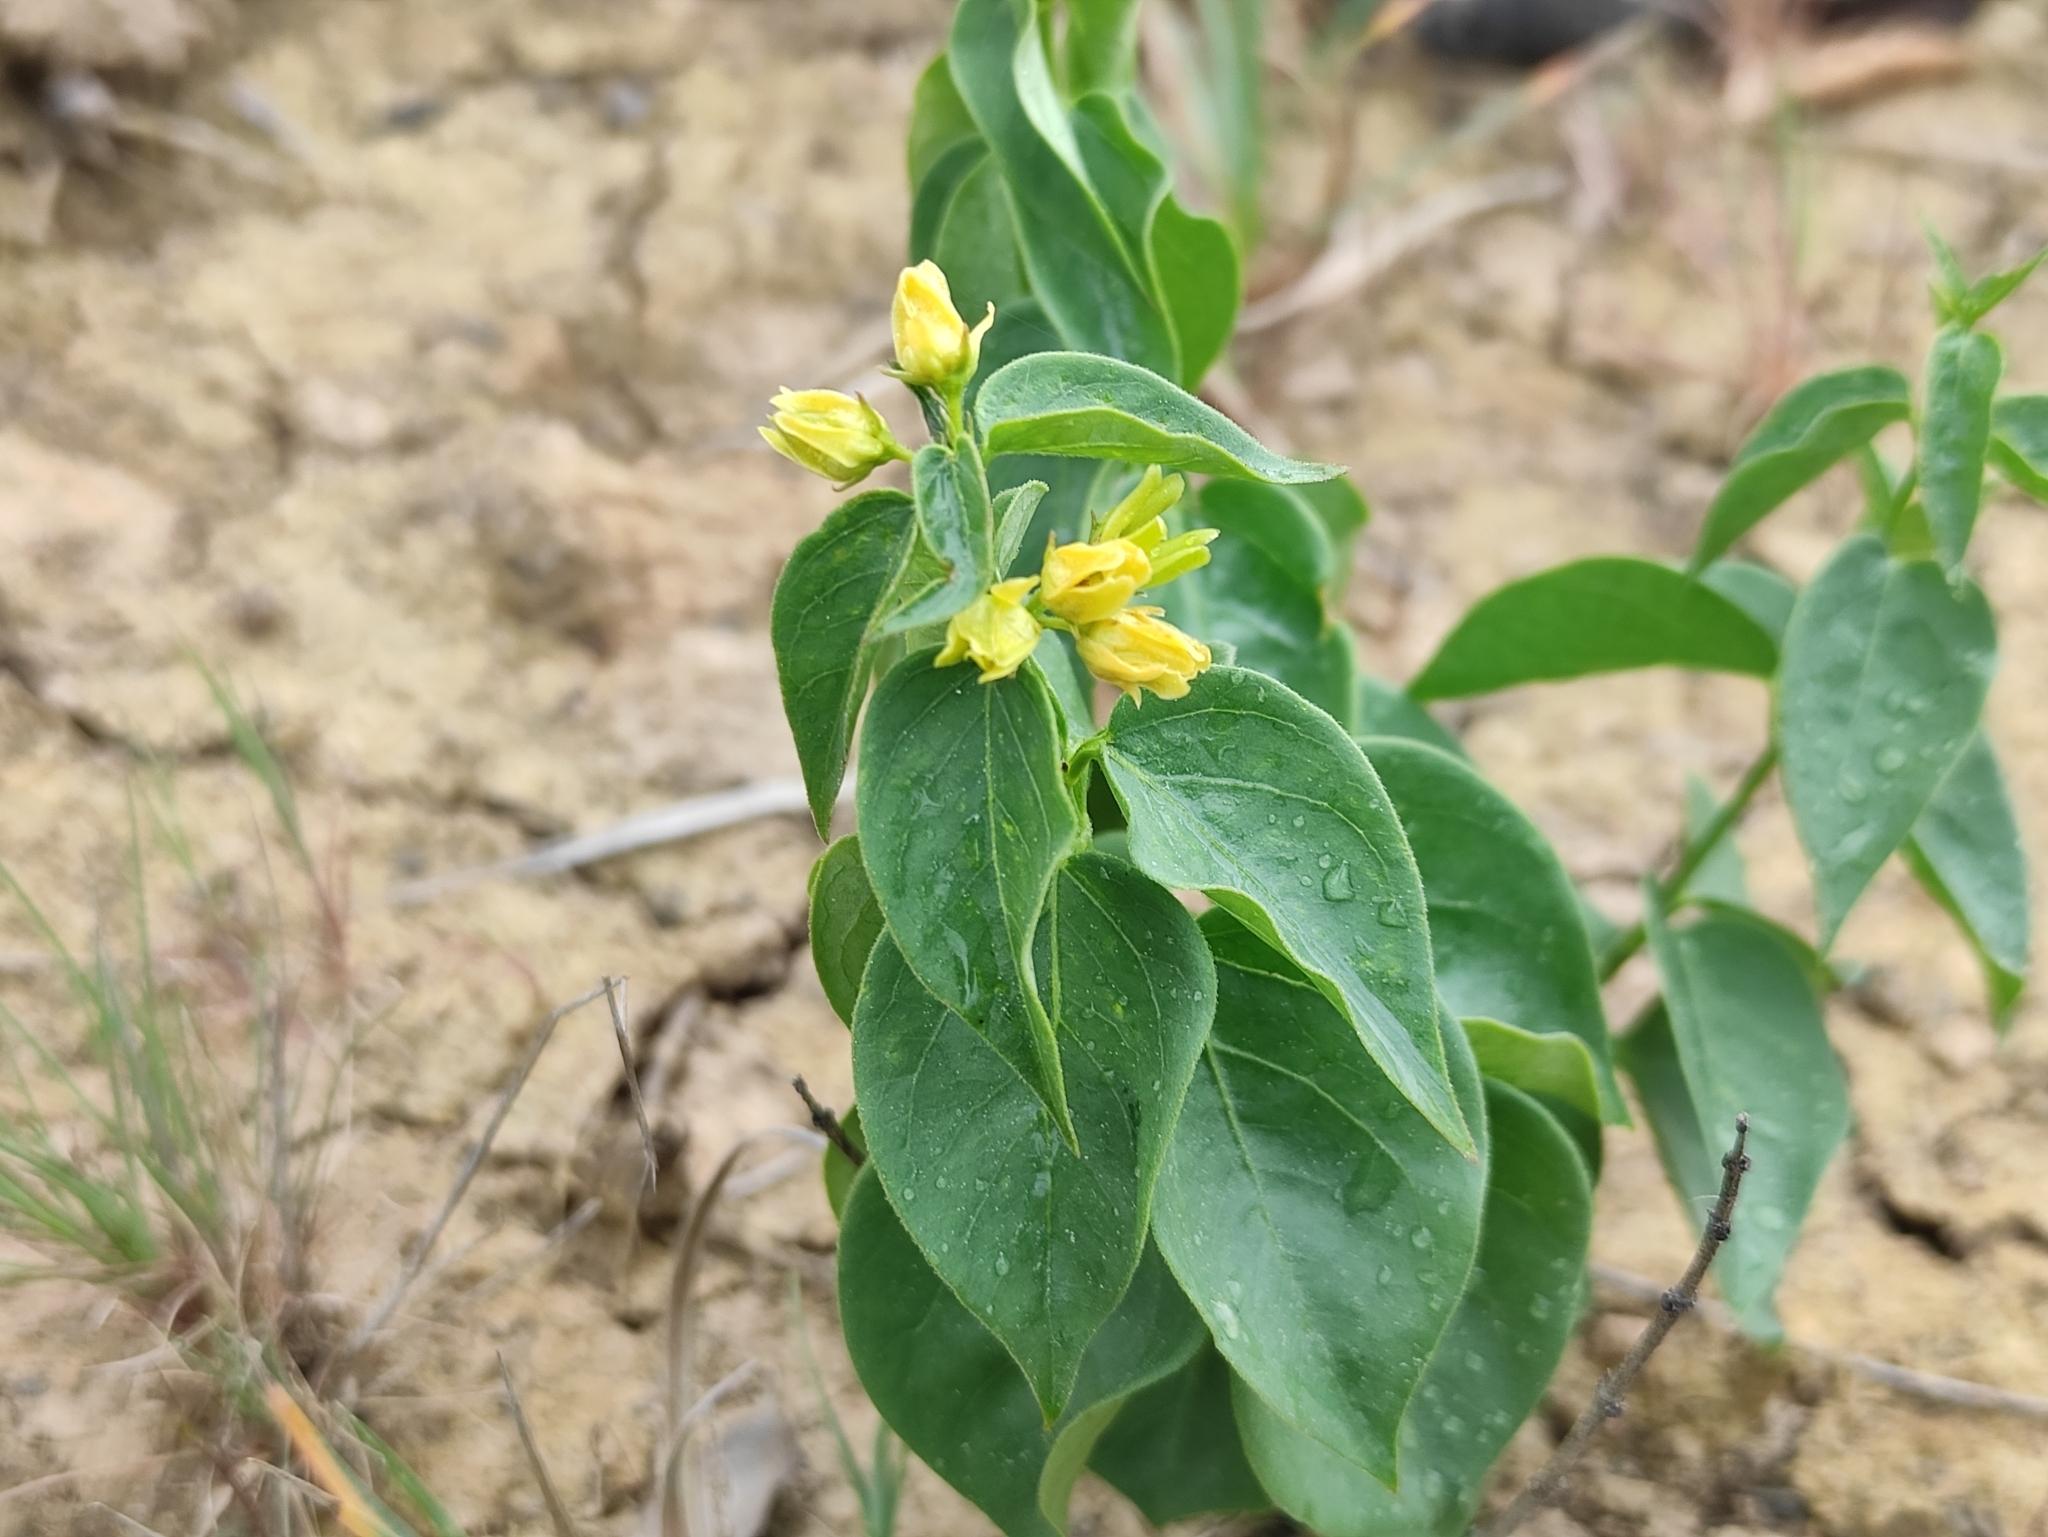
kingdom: Plantae
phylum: Tracheophyta
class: Magnoliopsida
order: Gentianales
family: Apocynaceae
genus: Vincetoxicum
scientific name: Vincetoxicum hirundinaria
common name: White swallowwort
